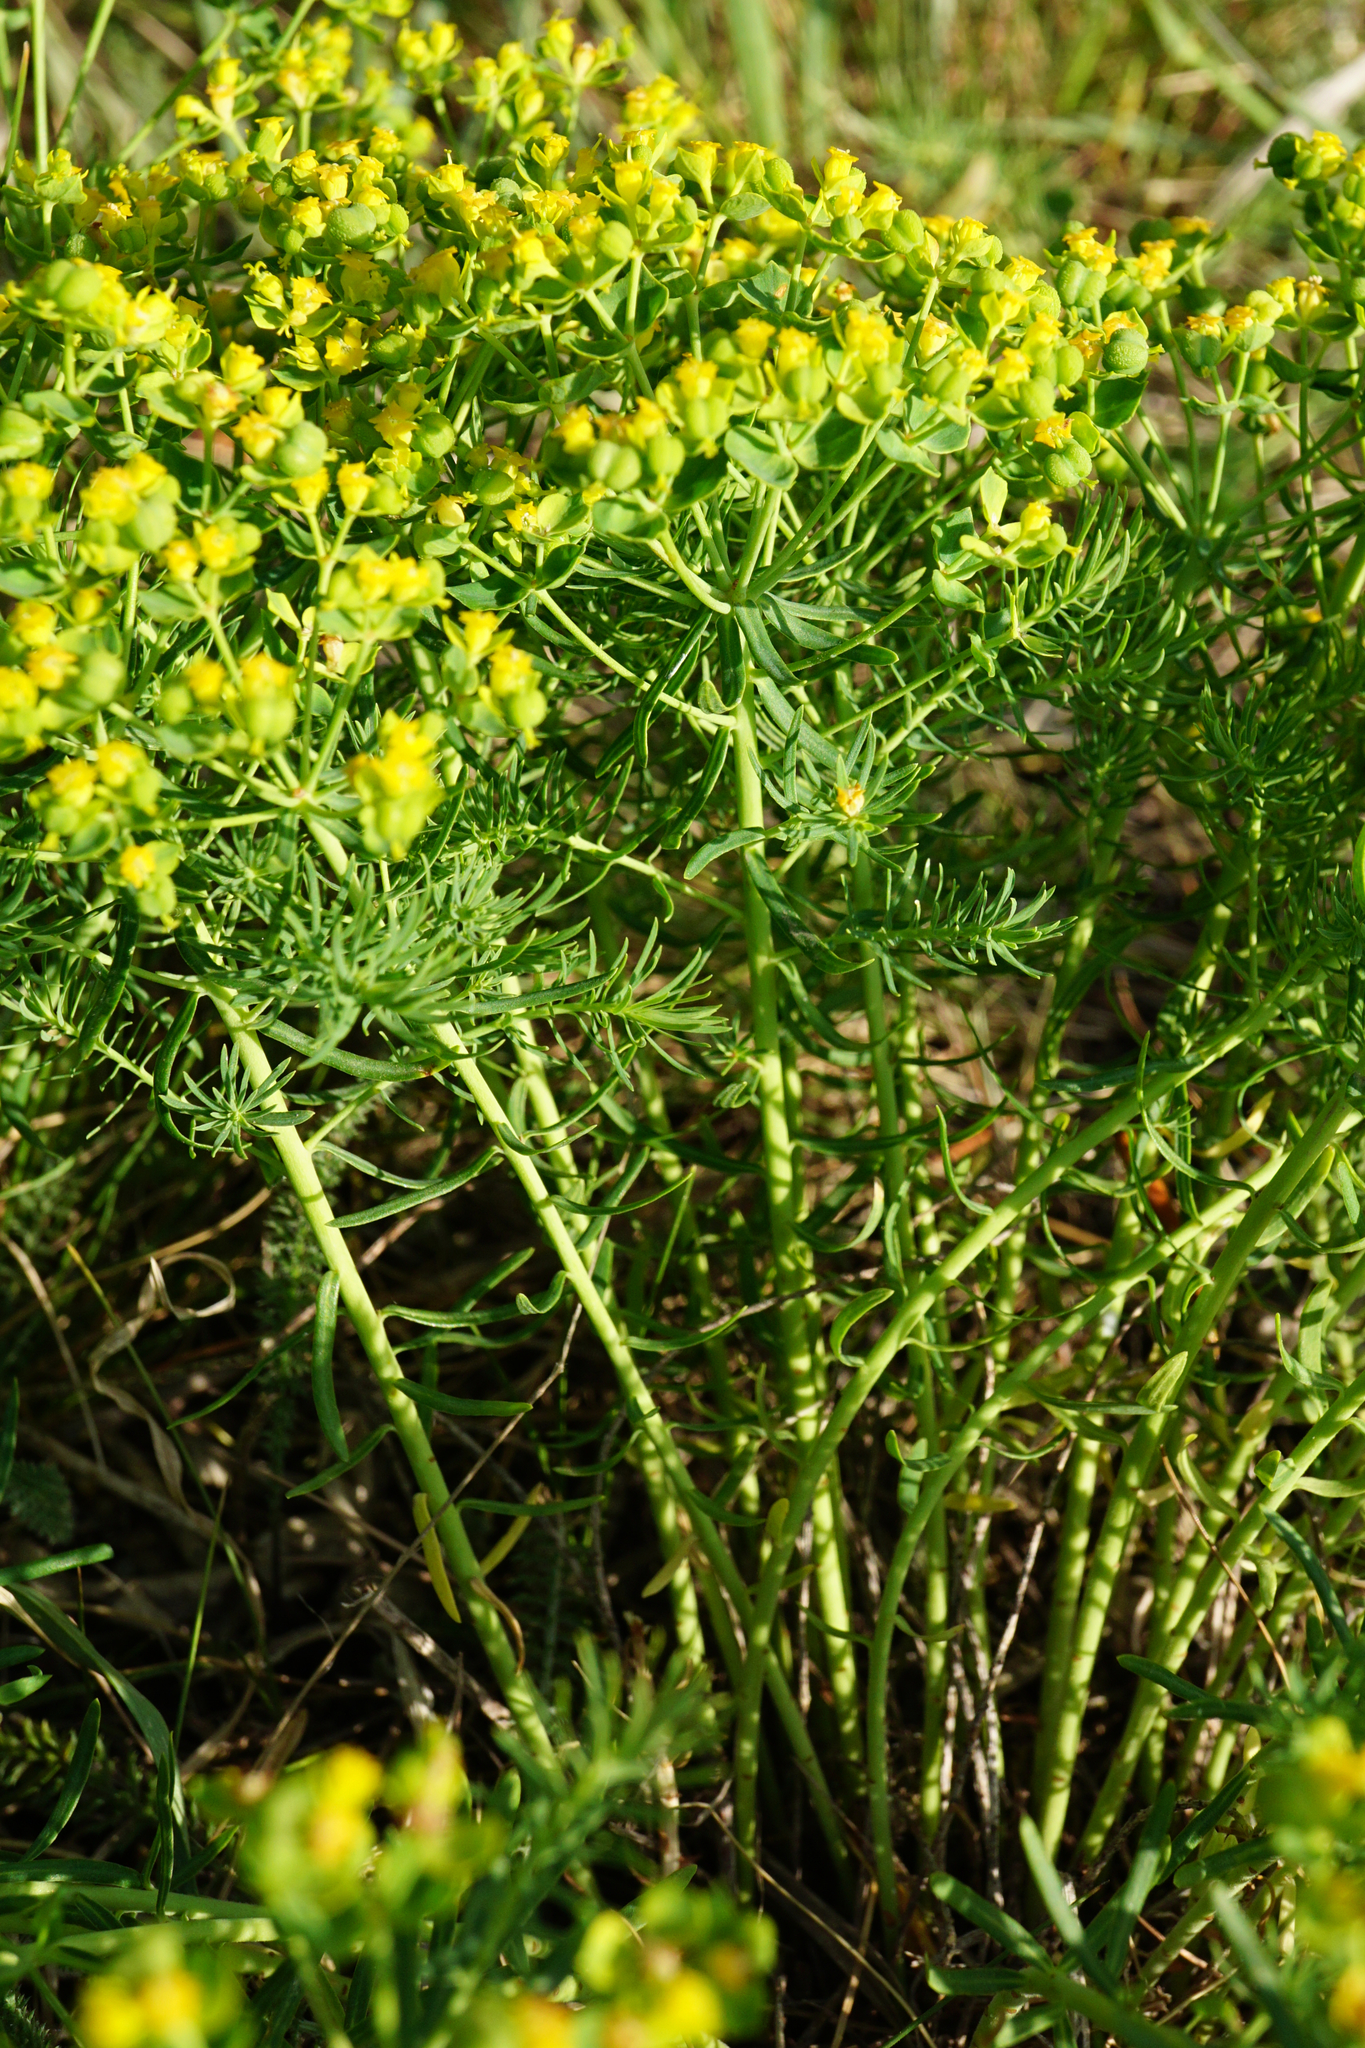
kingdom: Plantae
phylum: Tracheophyta
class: Magnoliopsida
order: Malpighiales
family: Euphorbiaceae
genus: Euphorbia
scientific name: Euphorbia cyparissias
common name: Cypress spurge
